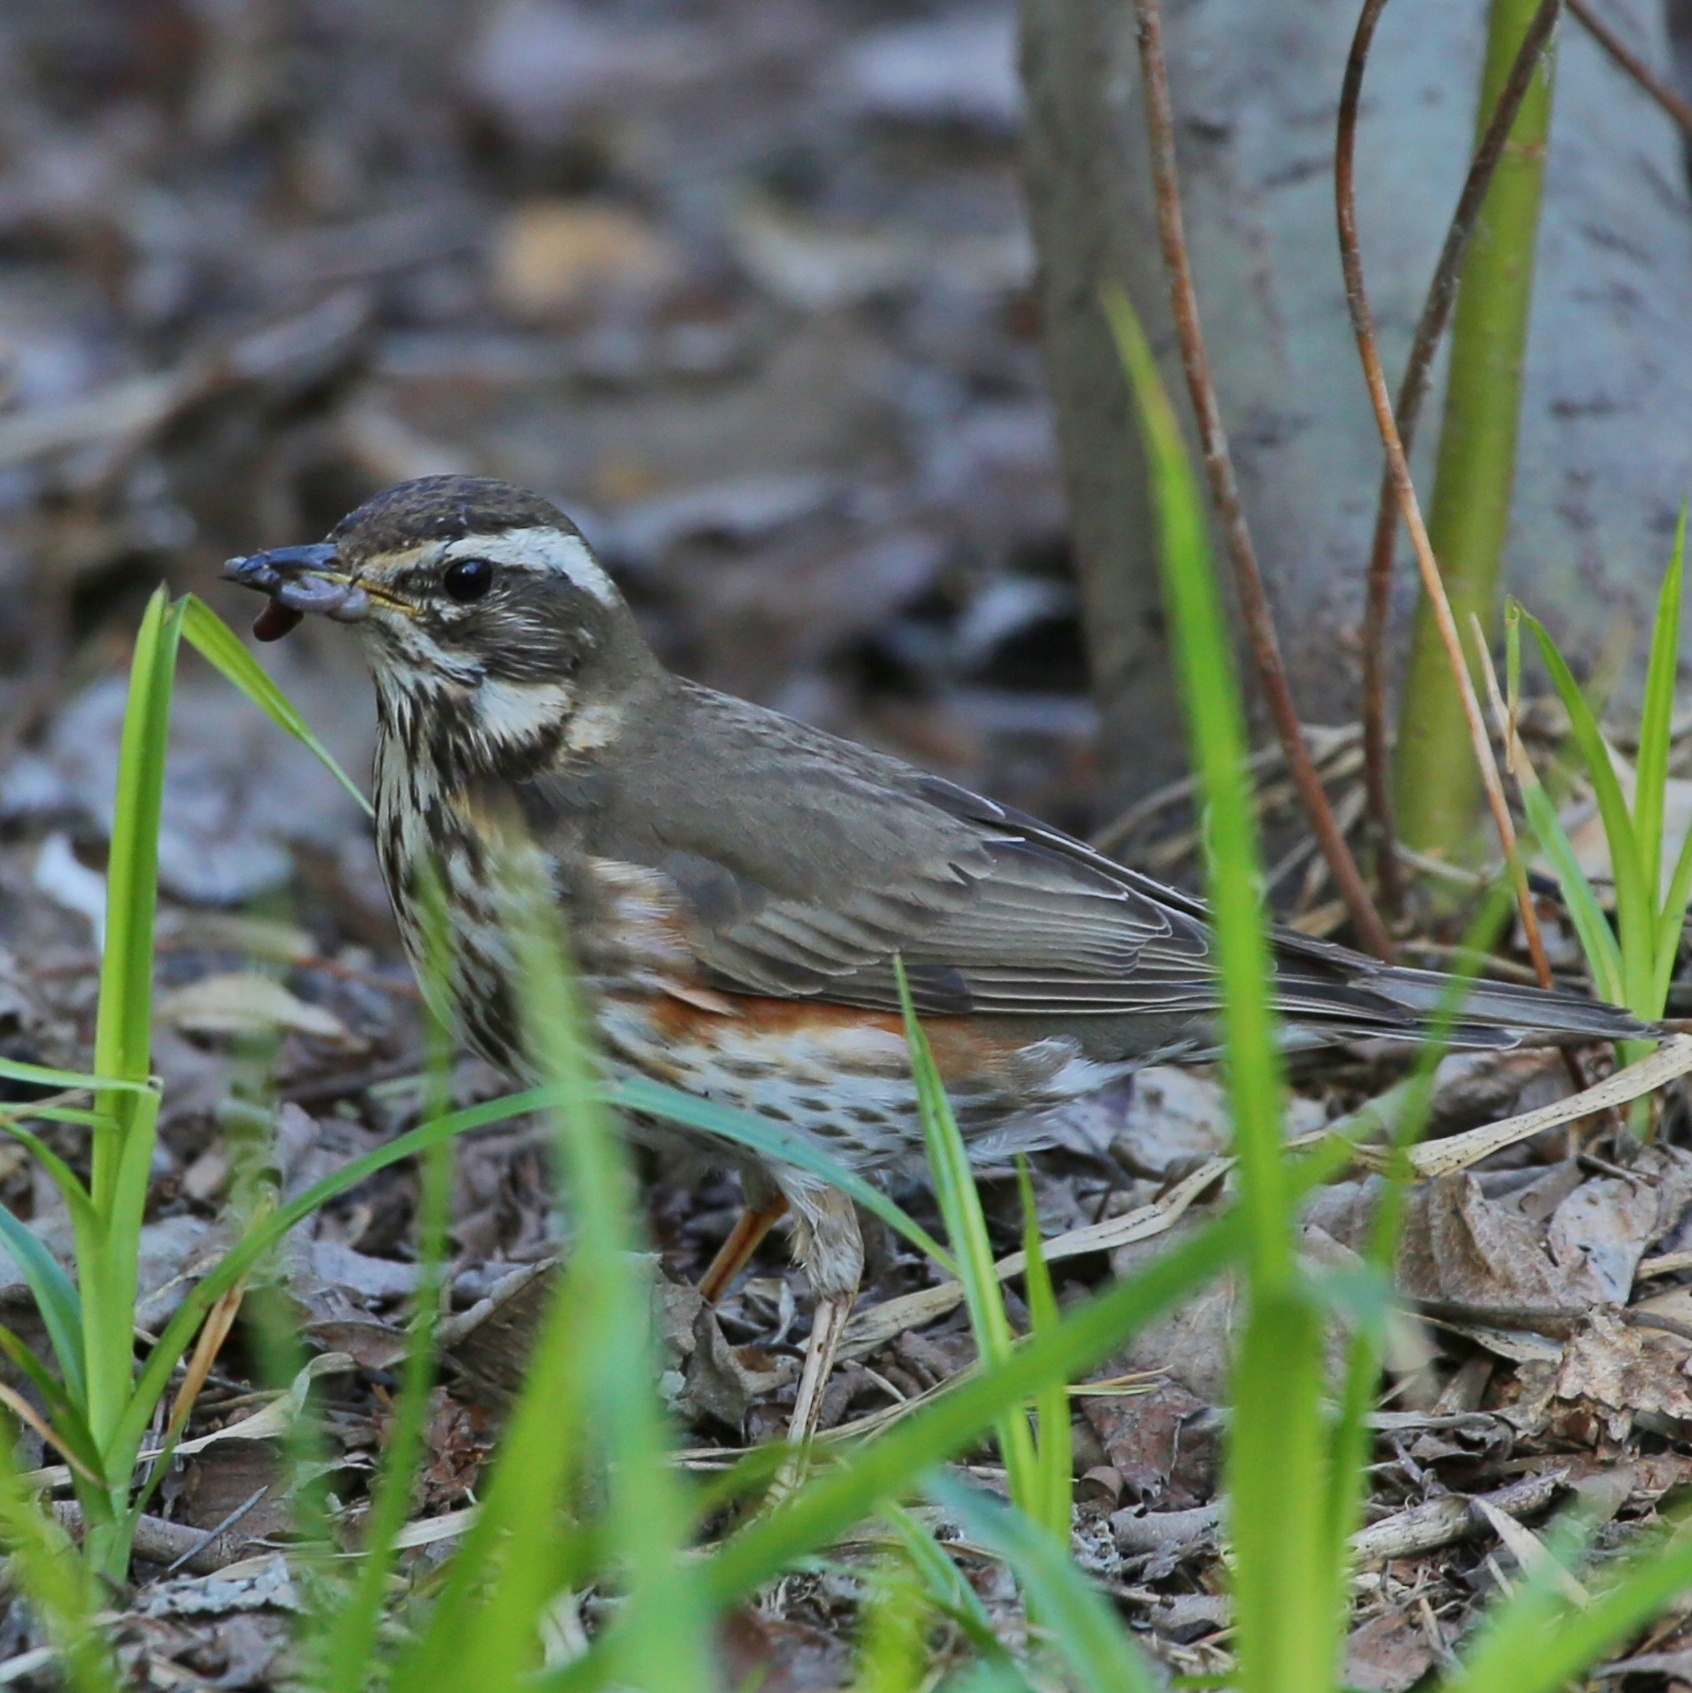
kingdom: Animalia
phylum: Chordata
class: Aves
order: Passeriformes
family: Turdidae
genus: Turdus
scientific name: Turdus iliacus
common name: Redwing
